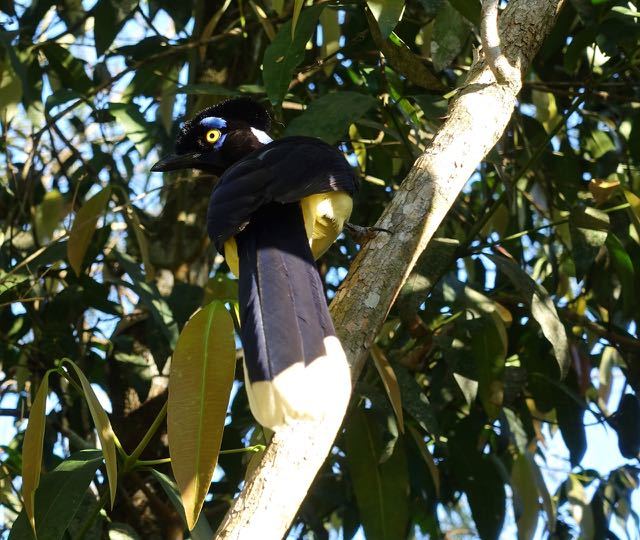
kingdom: Animalia
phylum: Chordata
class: Aves
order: Passeriformes
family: Corvidae
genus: Cyanocorax
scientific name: Cyanocorax chrysops
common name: Plush-crested jay
